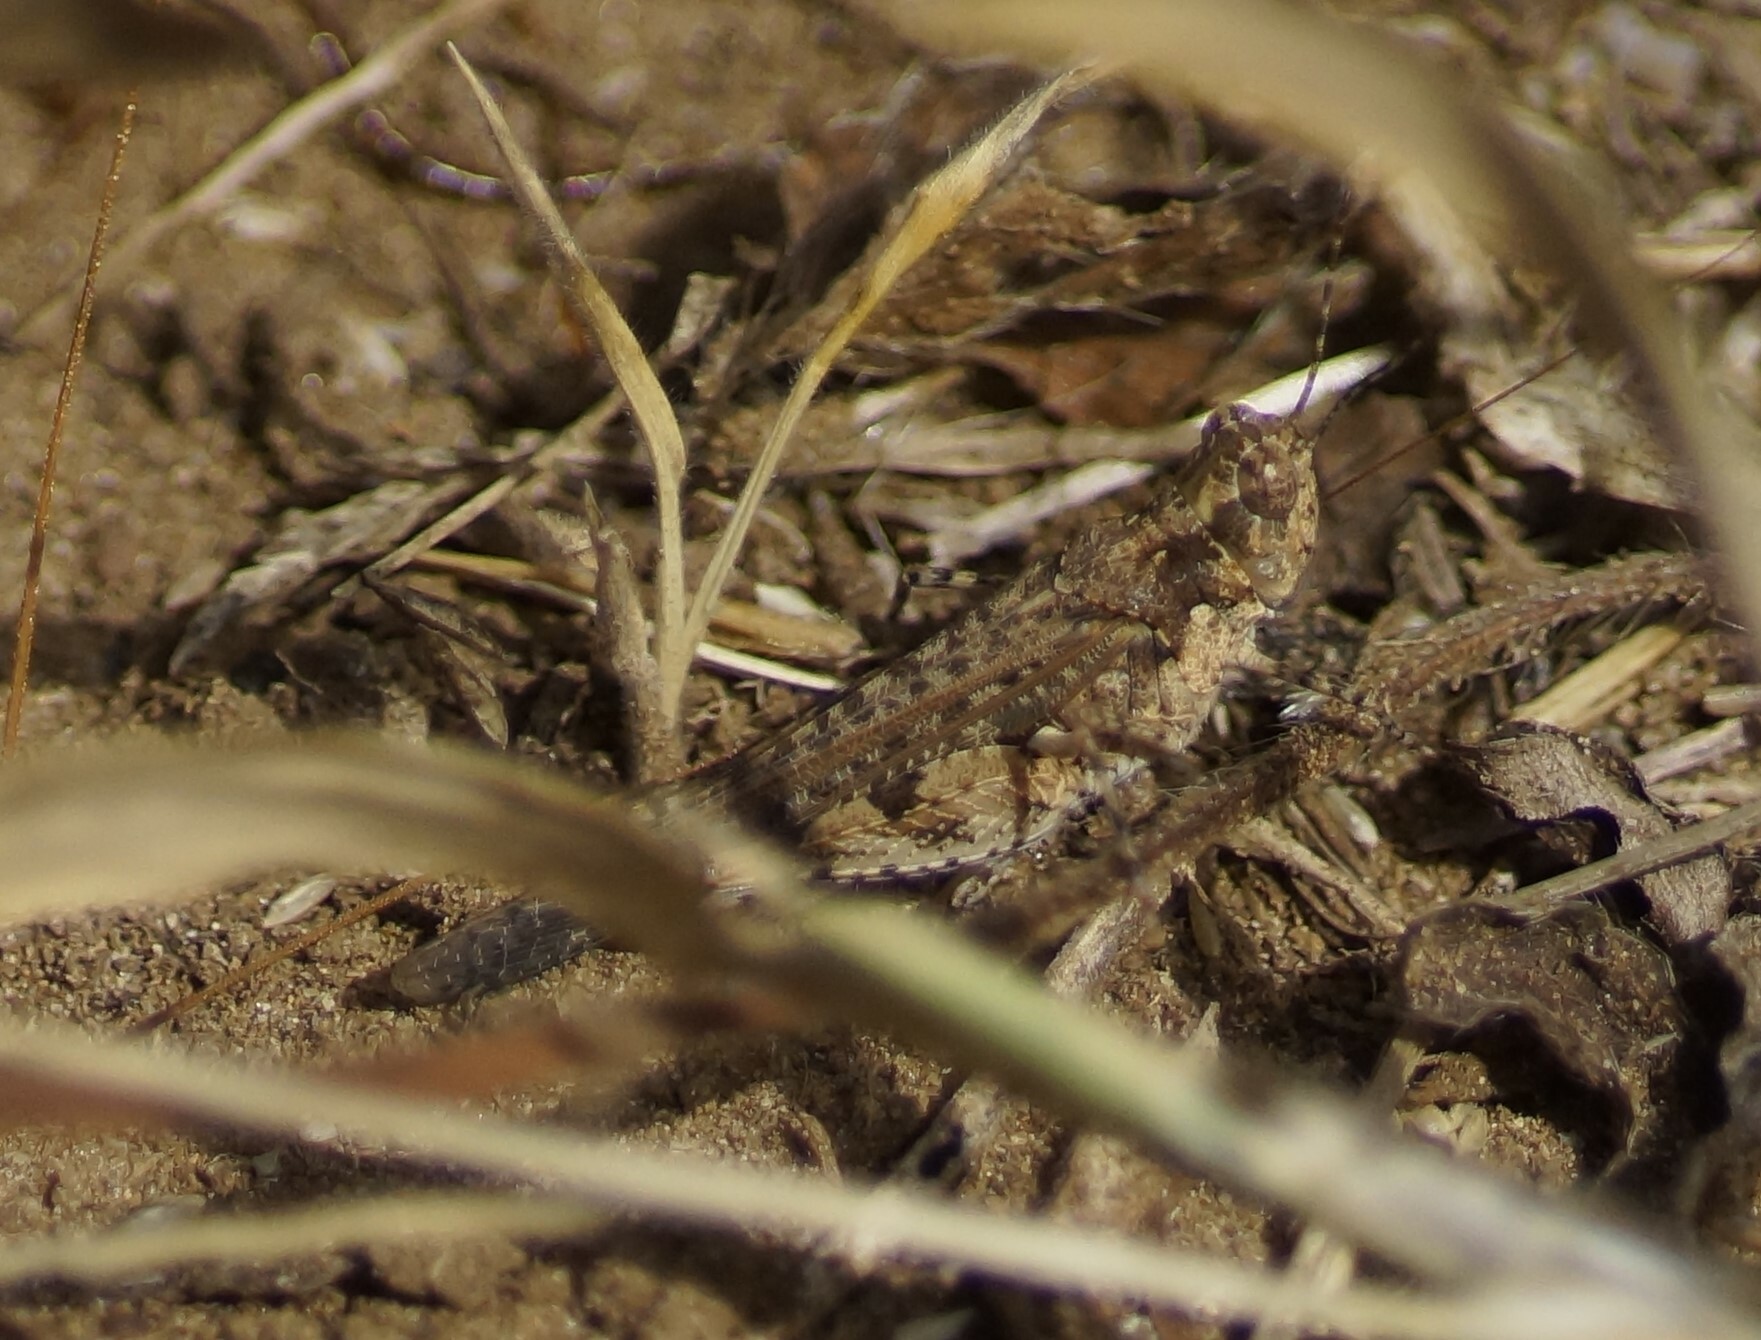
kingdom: Animalia
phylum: Arthropoda
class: Insecta
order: Orthoptera
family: Acrididae
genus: Pycnostictus
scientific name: Pycnostictus seriatus
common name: Common bandwing
